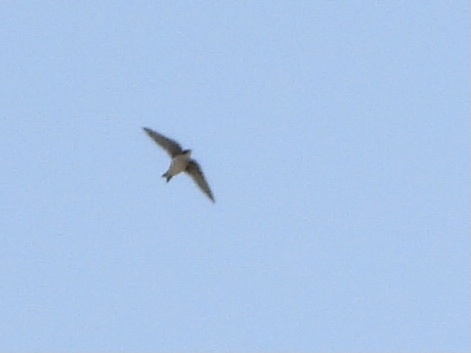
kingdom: Animalia
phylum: Chordata
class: Aves
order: Passeriformes
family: Hirundinidae
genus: Tachycineta
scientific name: Tachycineta bicolor
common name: Tree swallow
